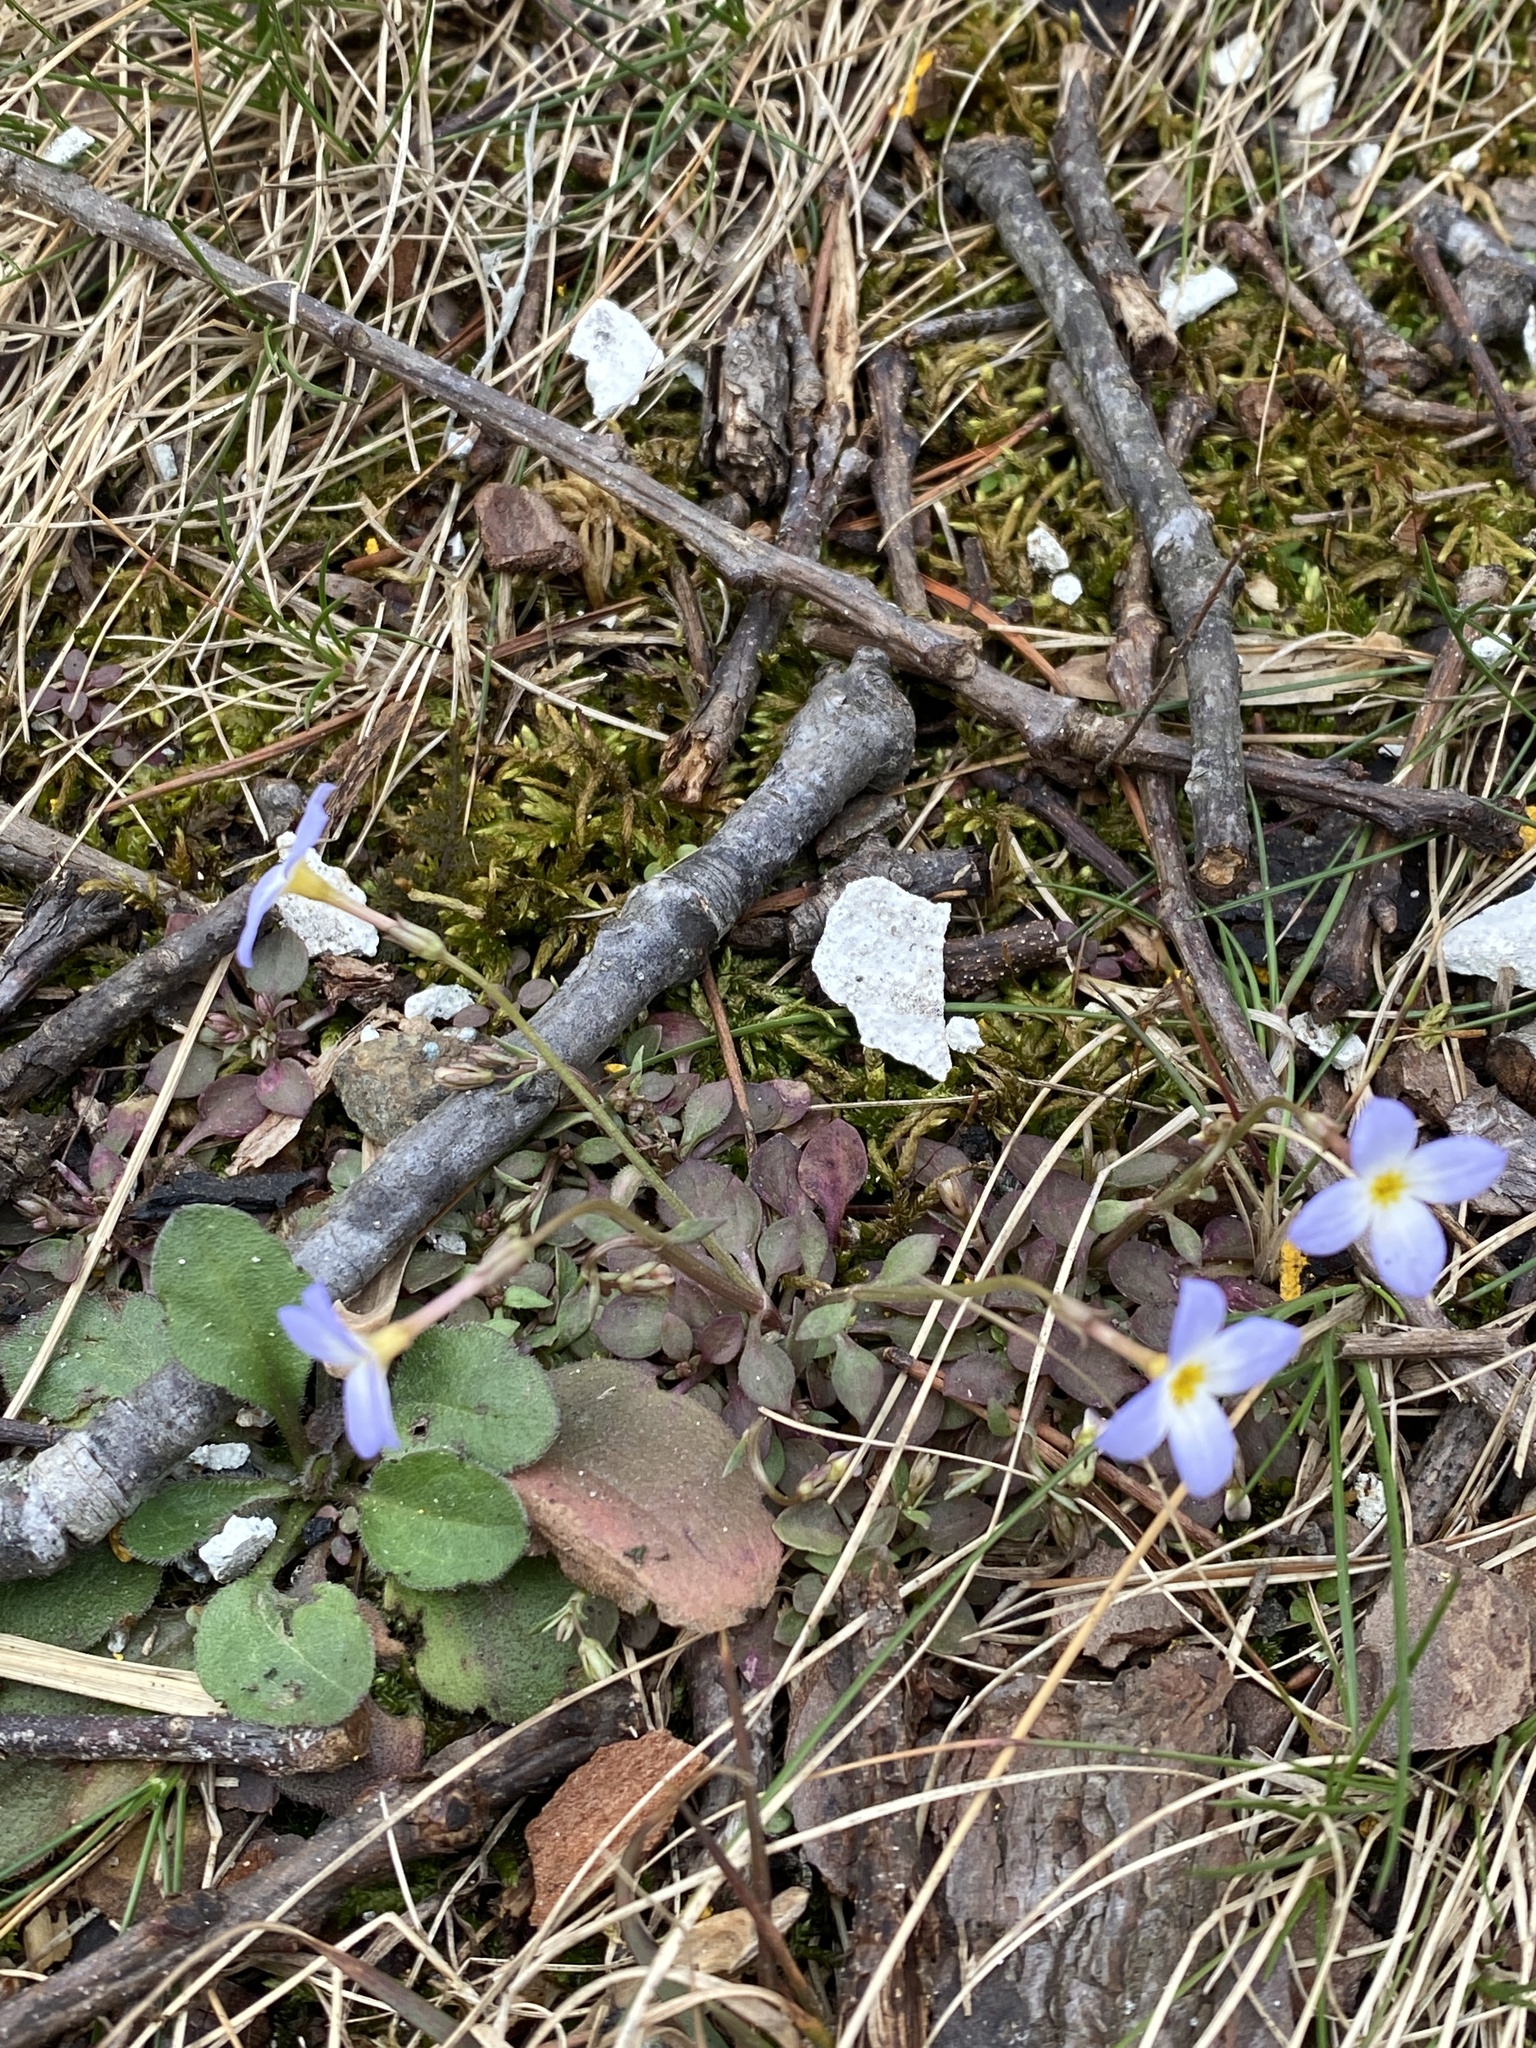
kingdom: Plantae
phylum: Tracheophyta
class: Magnoliopsida
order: Gentianales
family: Rubiaceae
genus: Houstonia
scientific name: Houstonia caerulea
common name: Bluets
